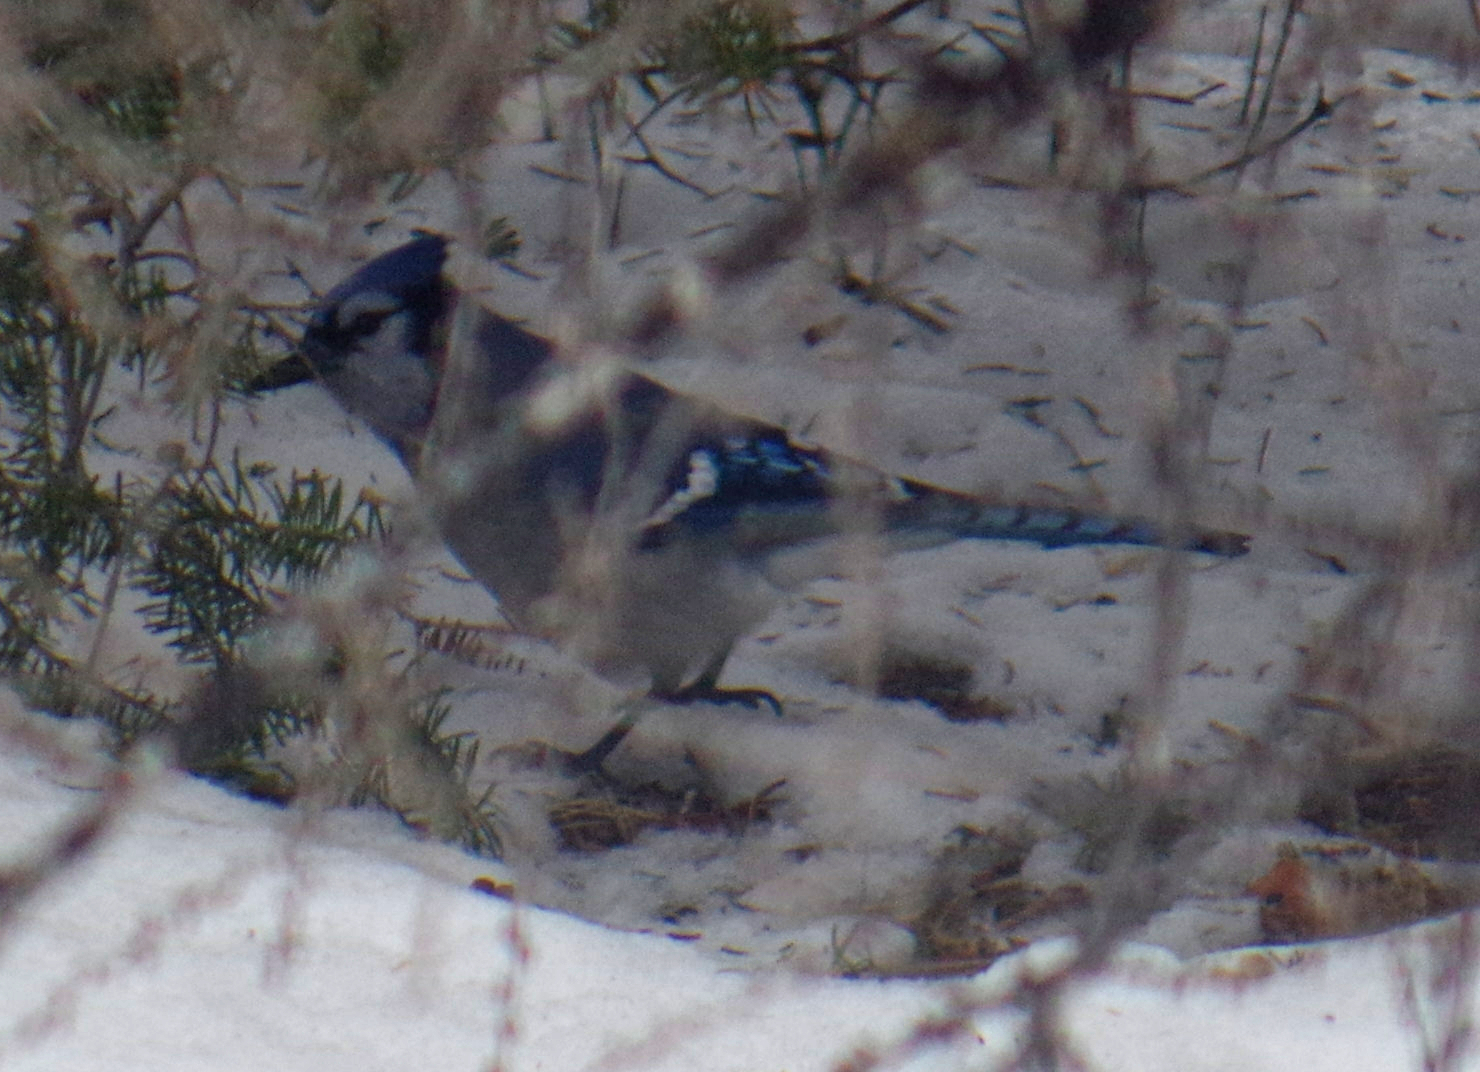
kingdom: Animalia
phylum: Chordata
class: Aves
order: Passeriformes
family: Corvidae
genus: Cyanocitta
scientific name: Cyanocitta cristata
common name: Blue jay
